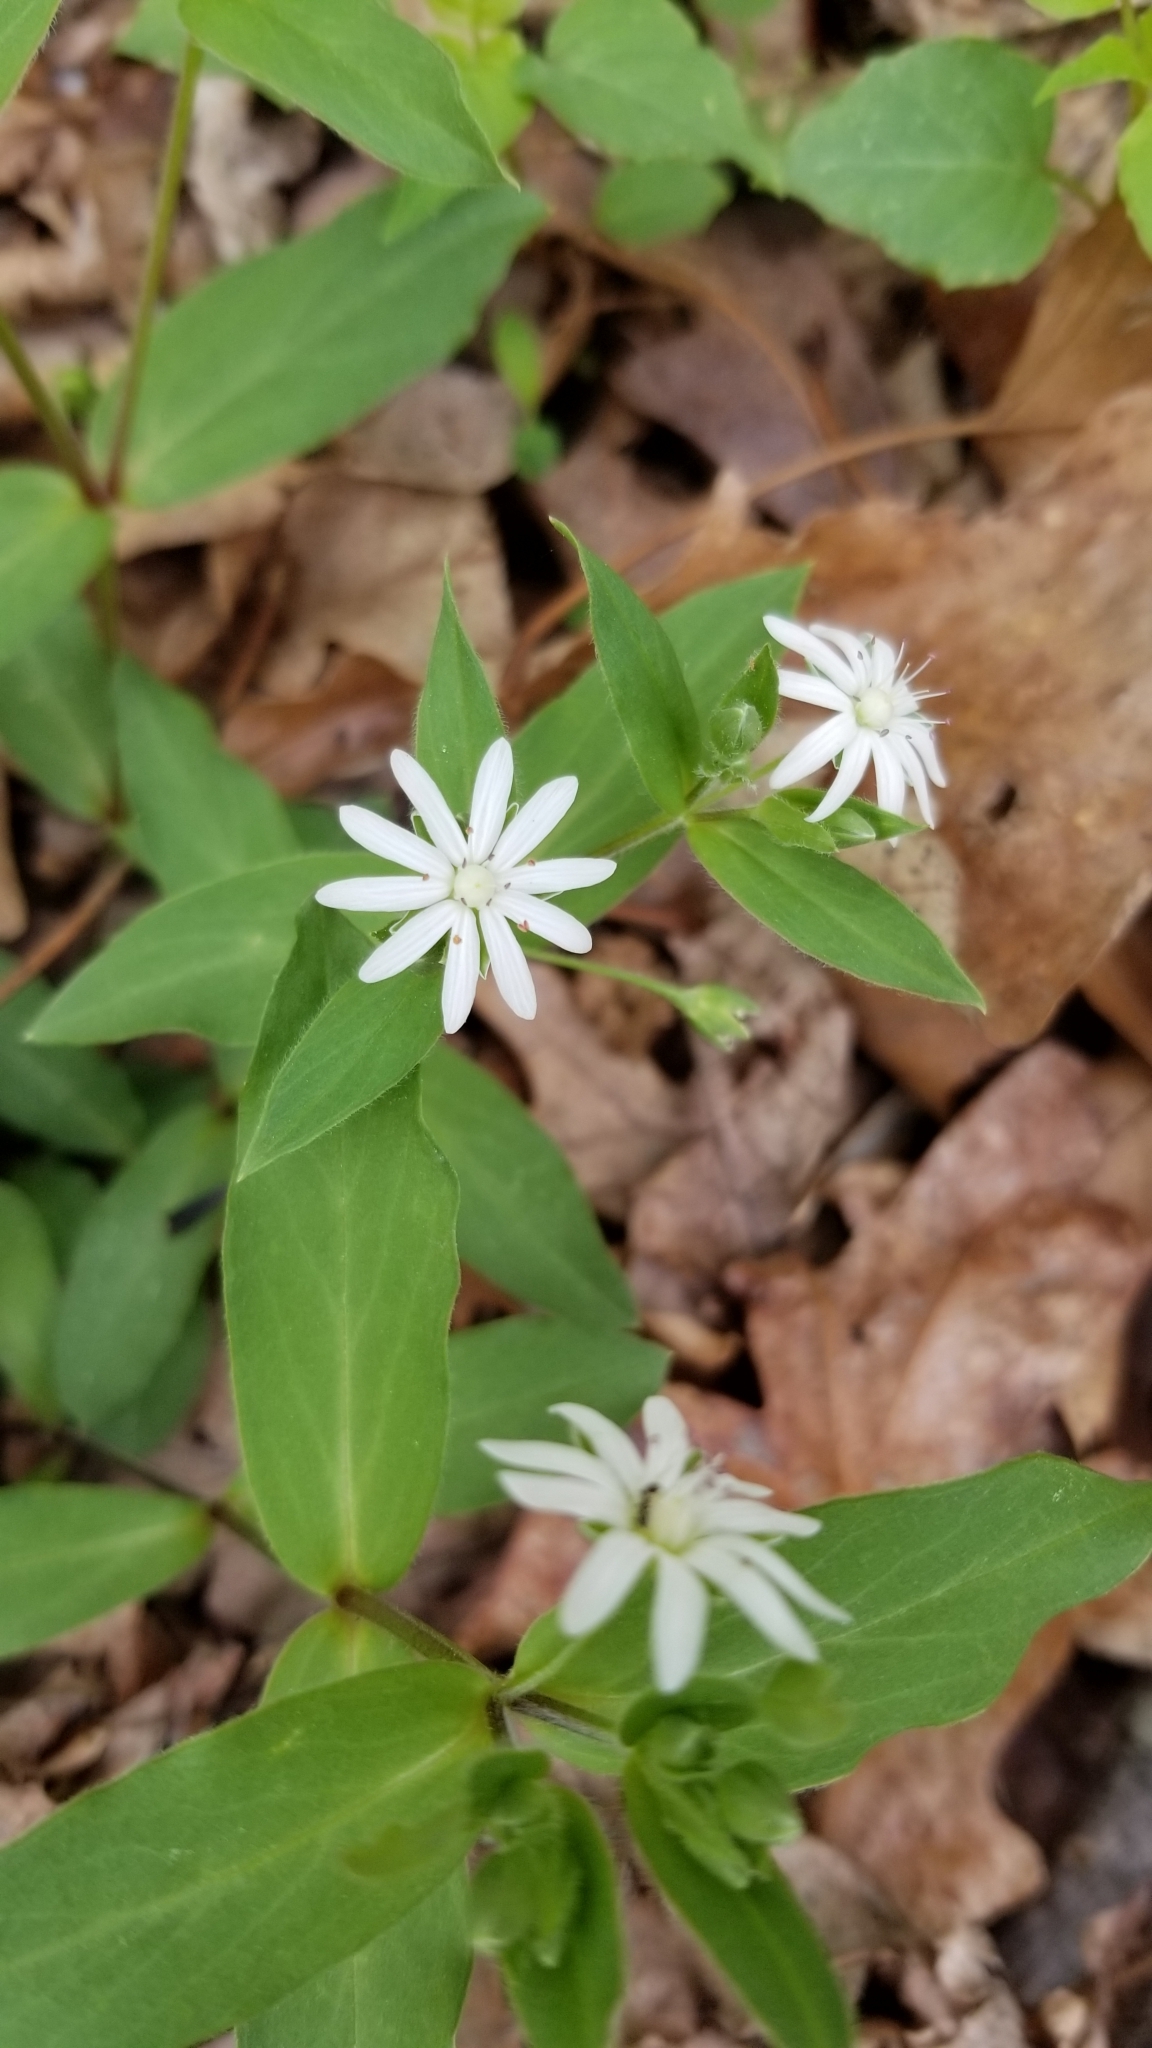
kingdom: Plantae
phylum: Tracheophyta
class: Magnoliopsida
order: Caryophyllales
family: Caryophyllaceae
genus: Stellaria
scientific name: Stellaria pubera
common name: Star chickweed
